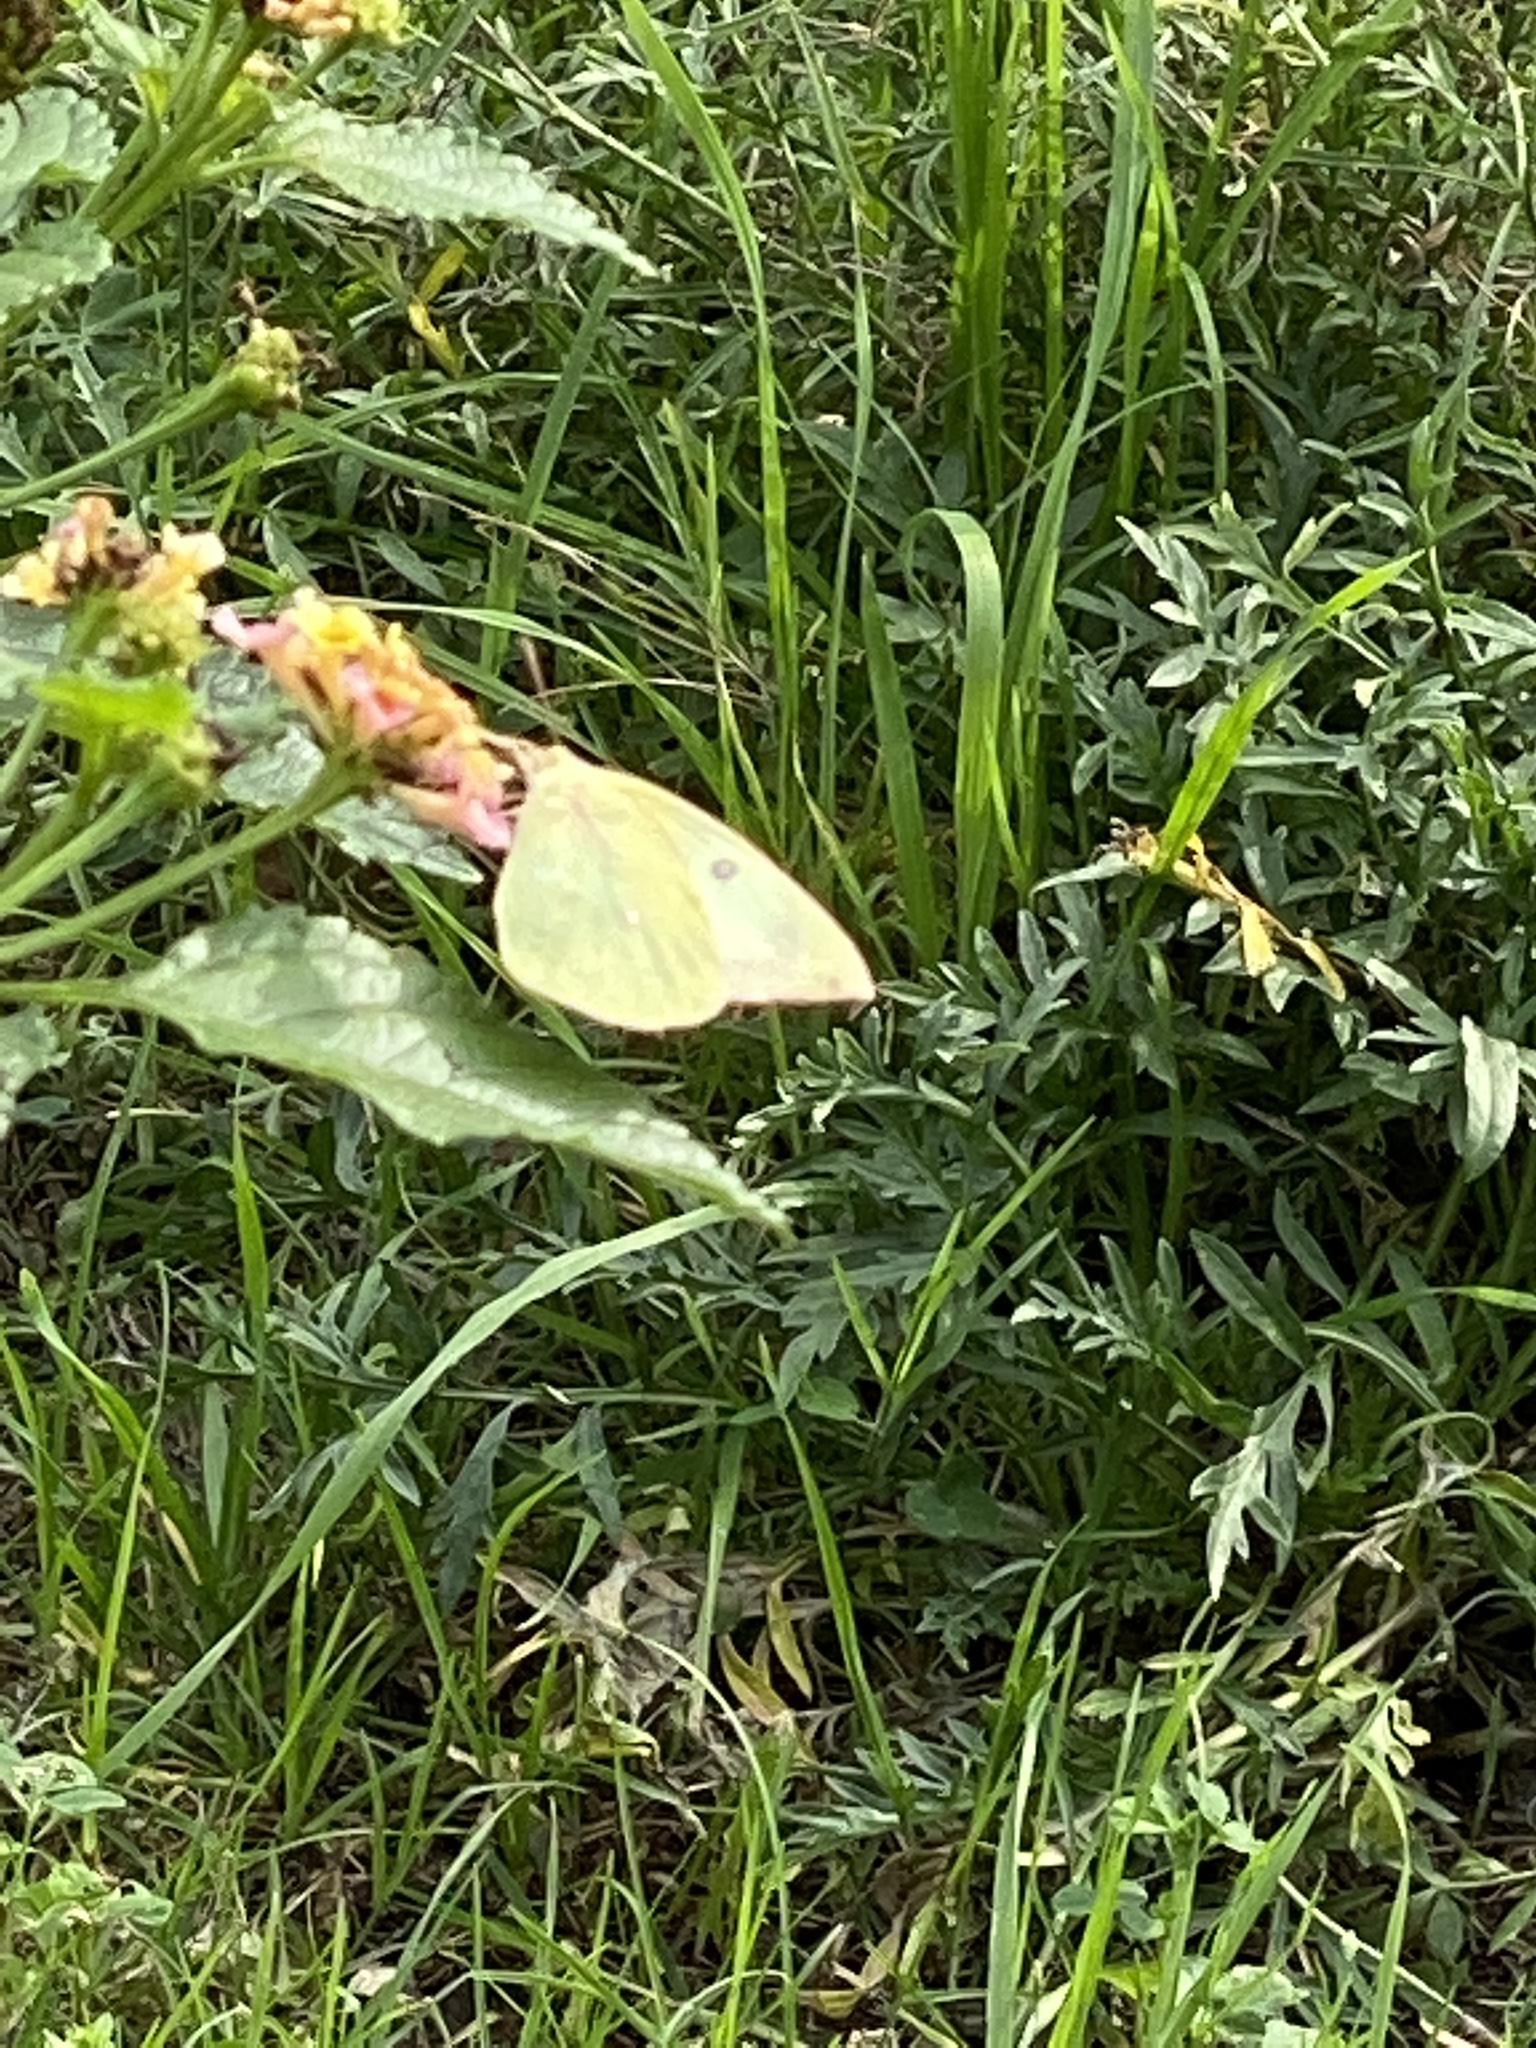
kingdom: Animalia
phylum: Arthropoda
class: Insecta
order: Lepidoptera
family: Pieridae
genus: Zerene
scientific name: Zerene cesonia
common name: Southern dogface
